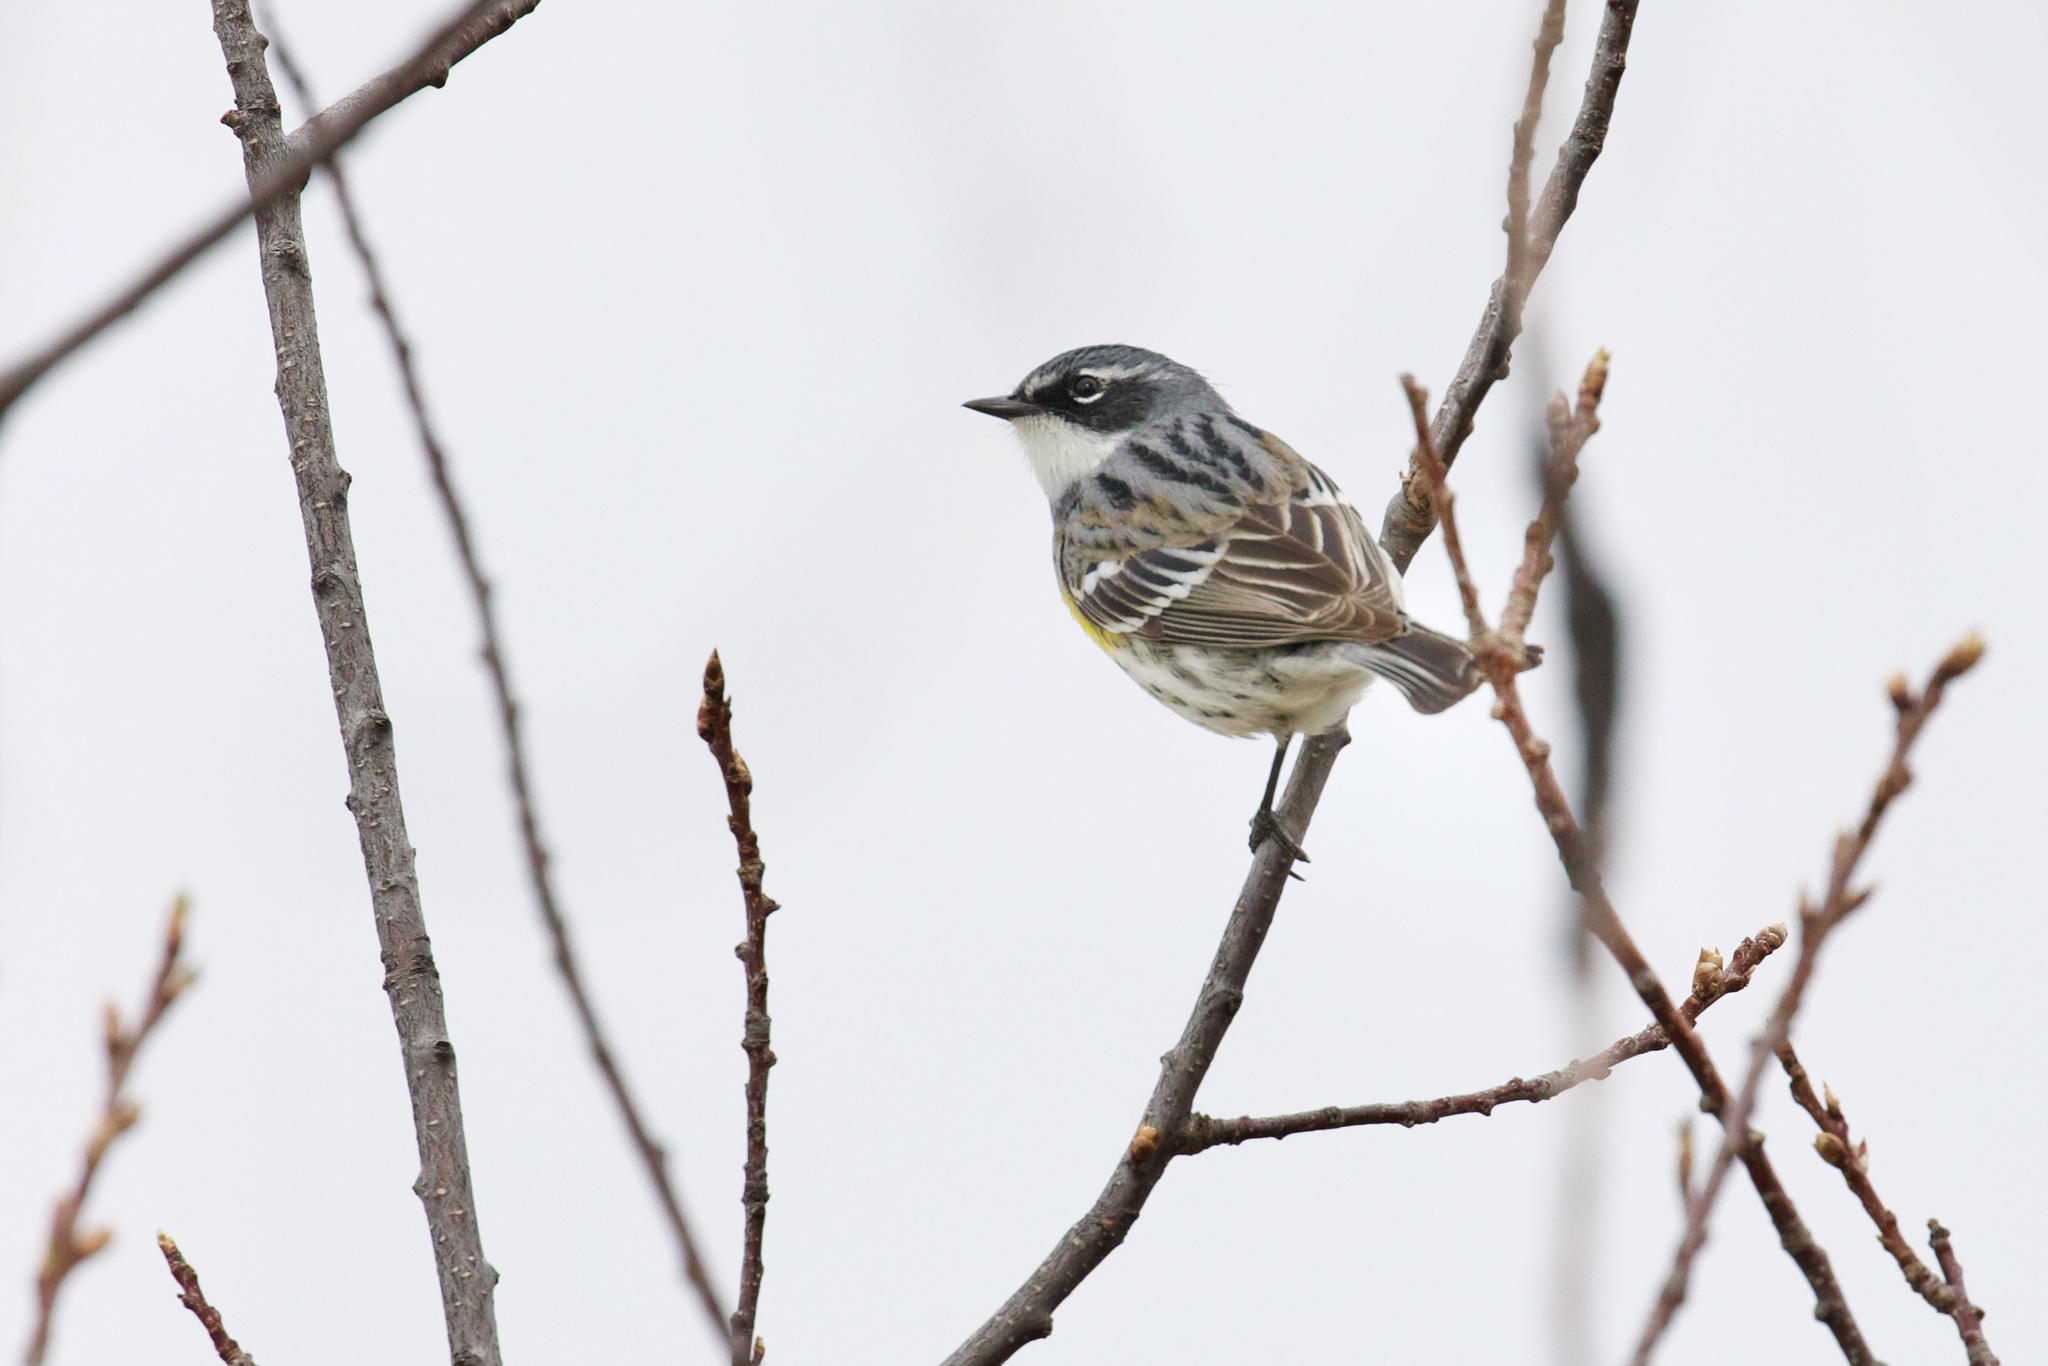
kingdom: Animalia
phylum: Chordata
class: Aves
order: Passeriformes
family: Parulidae
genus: Setophaga
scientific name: Setophaga coronata
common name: Myrtle warbler
